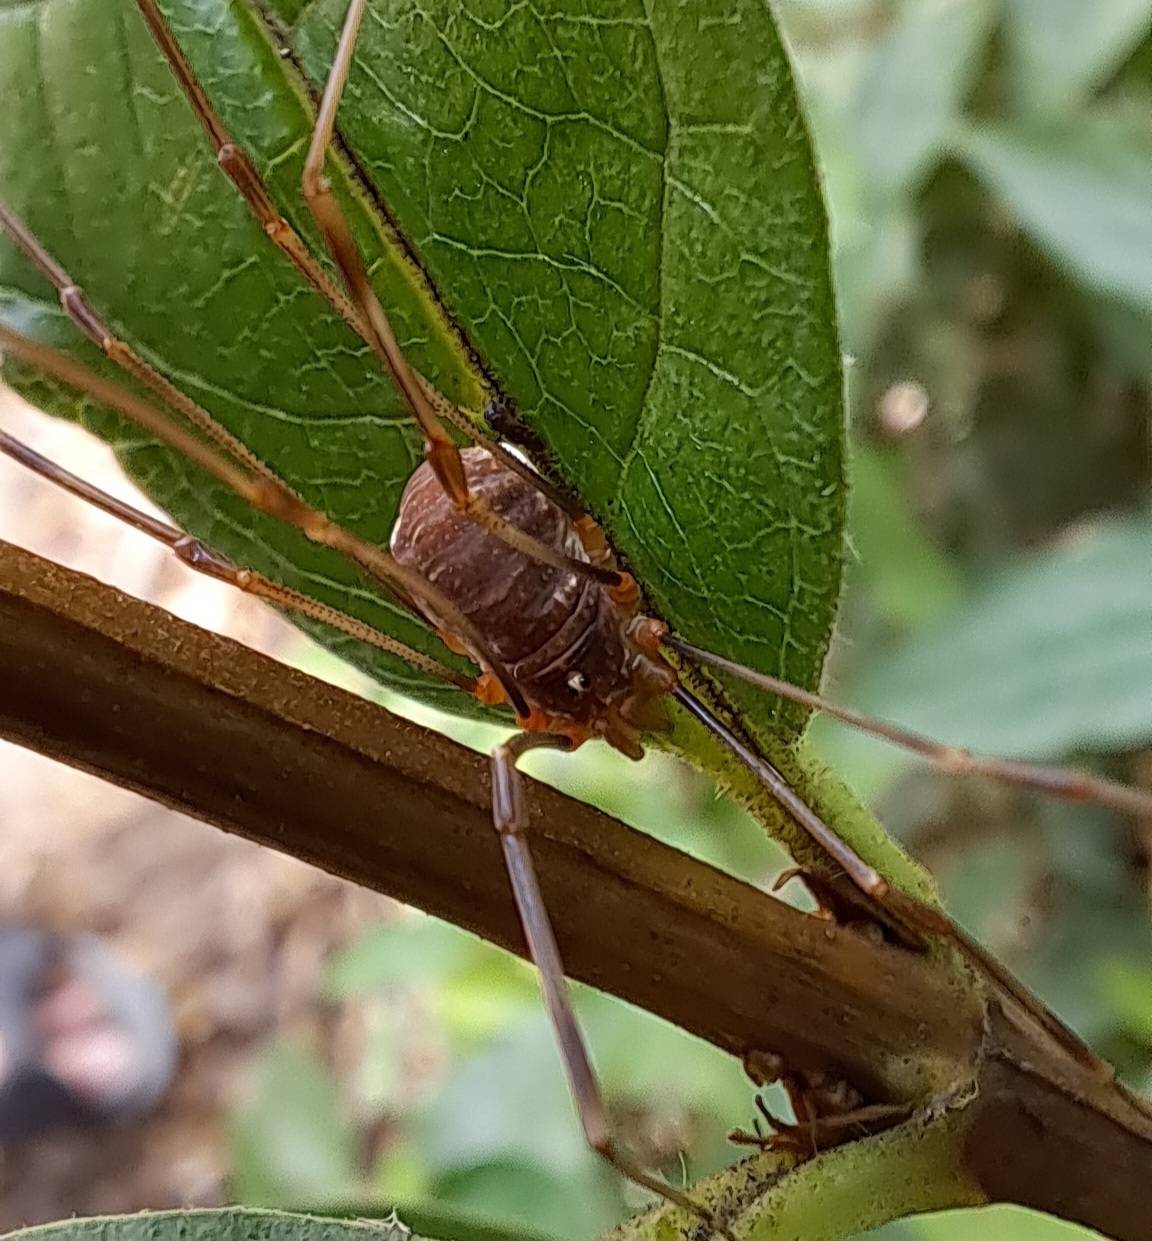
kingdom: Animalia
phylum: Arthropoda
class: Arachnida
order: Opiliones
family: Phalangiidae
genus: Opilio
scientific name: Opilio canestrinii
